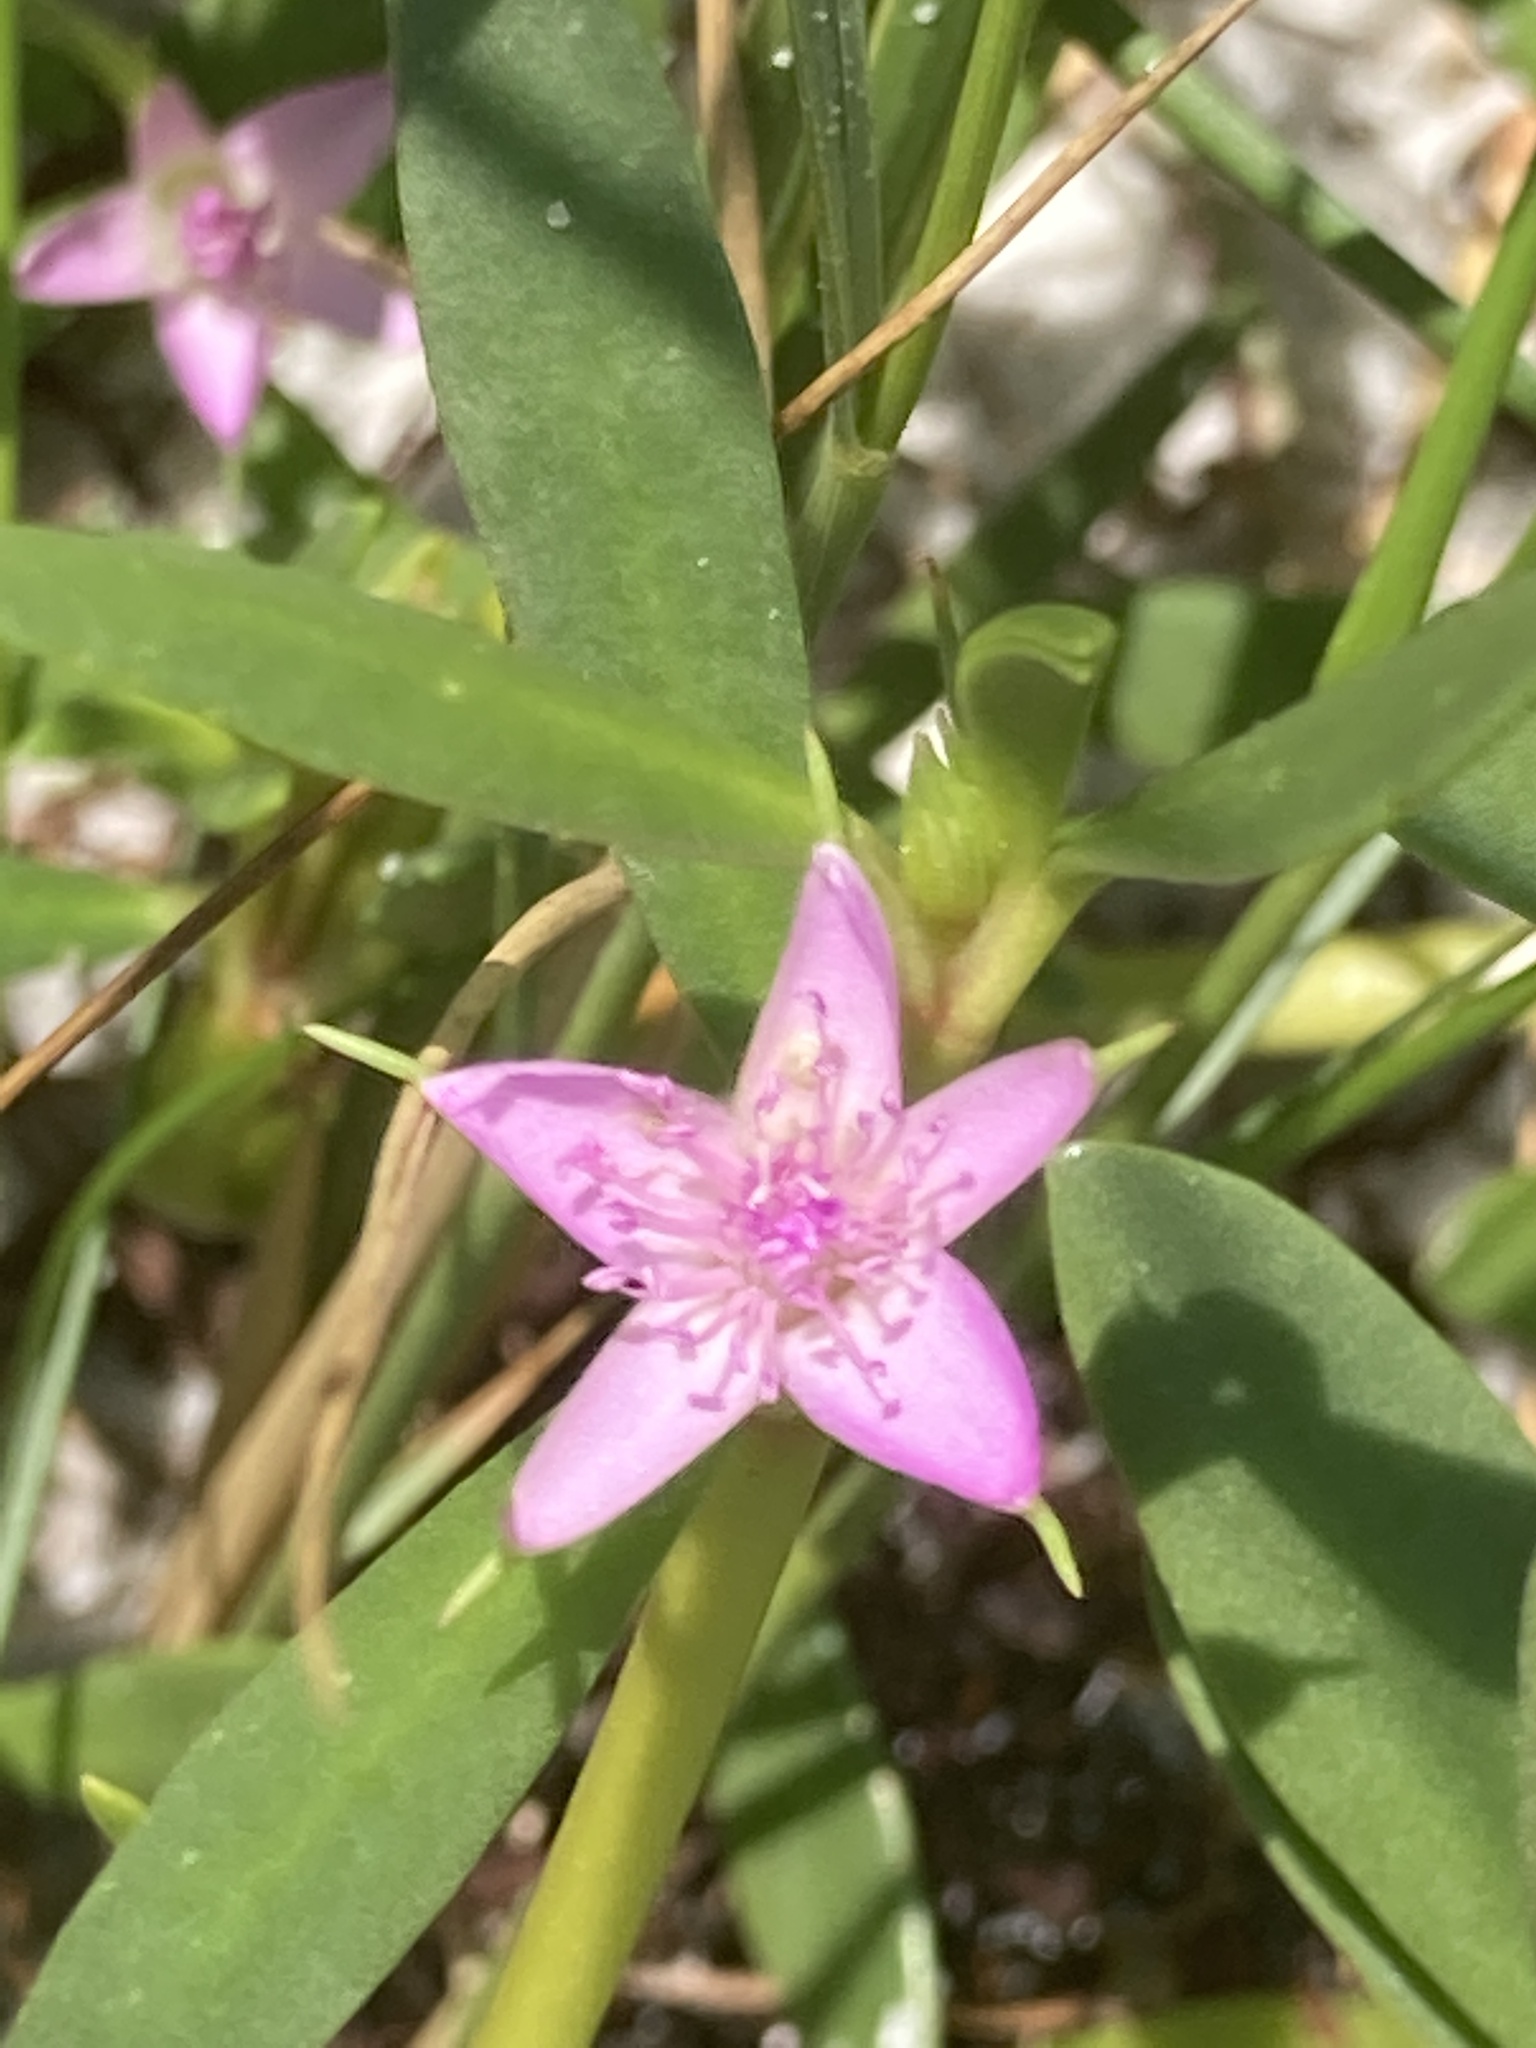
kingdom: Plantae
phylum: Tracheophyta
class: Magnoliopsida
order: Caryophyllales
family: Aizoaceae
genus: Sesuvium
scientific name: Sesuvium portulacastrum
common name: Sea-purslane
